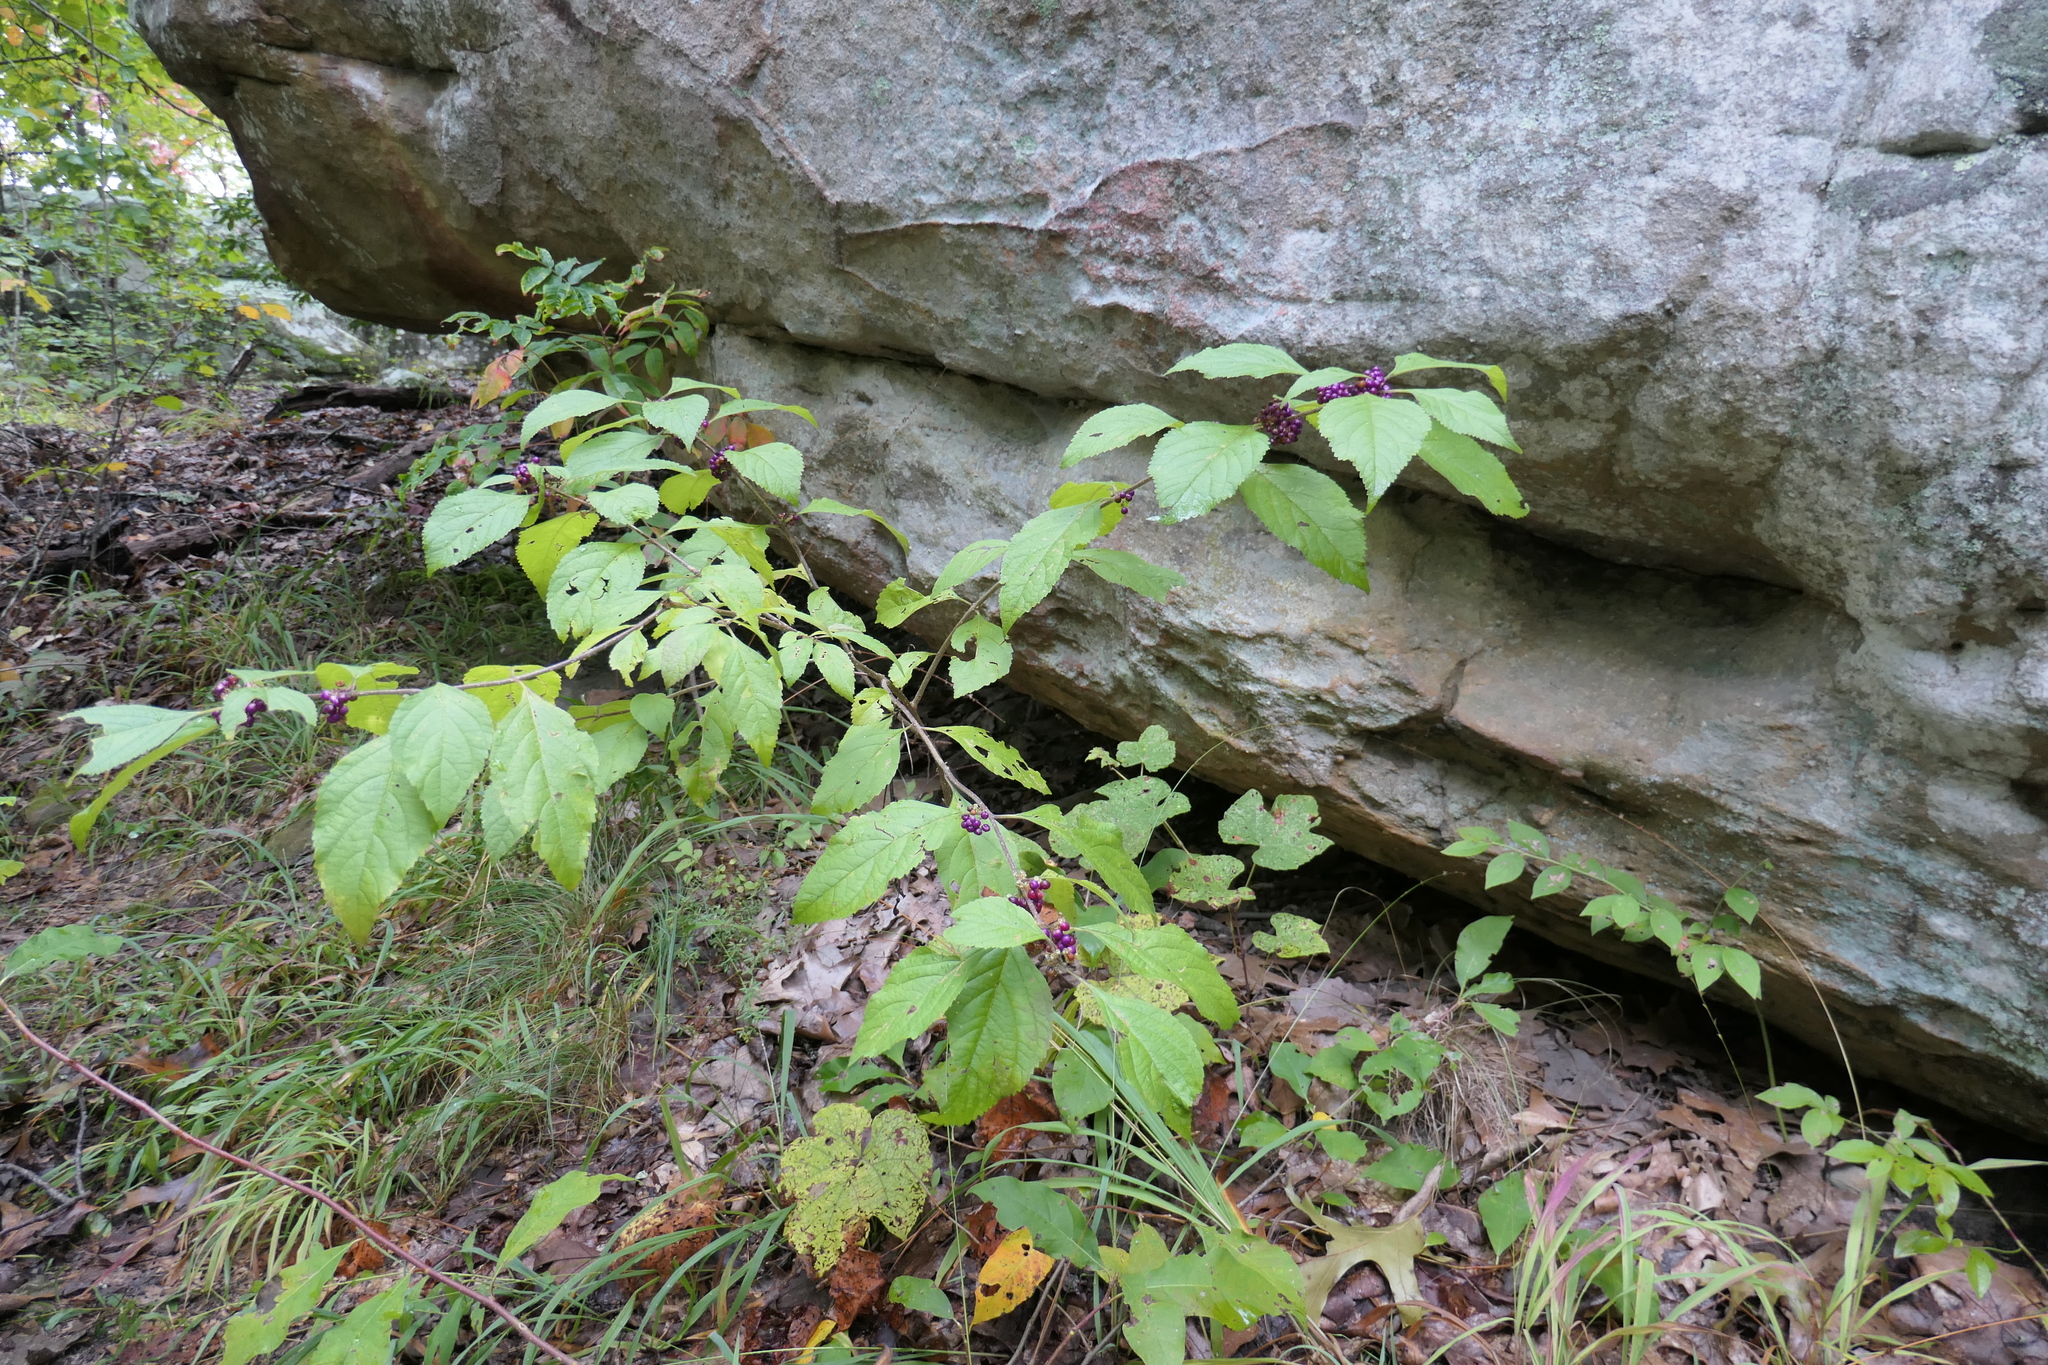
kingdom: Plantae
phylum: Tracheophyta
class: Magnoliopsida
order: Lamiales
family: Lamiaceae
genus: Callicarpa
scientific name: Callicarpa americana
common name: American beautyberry
